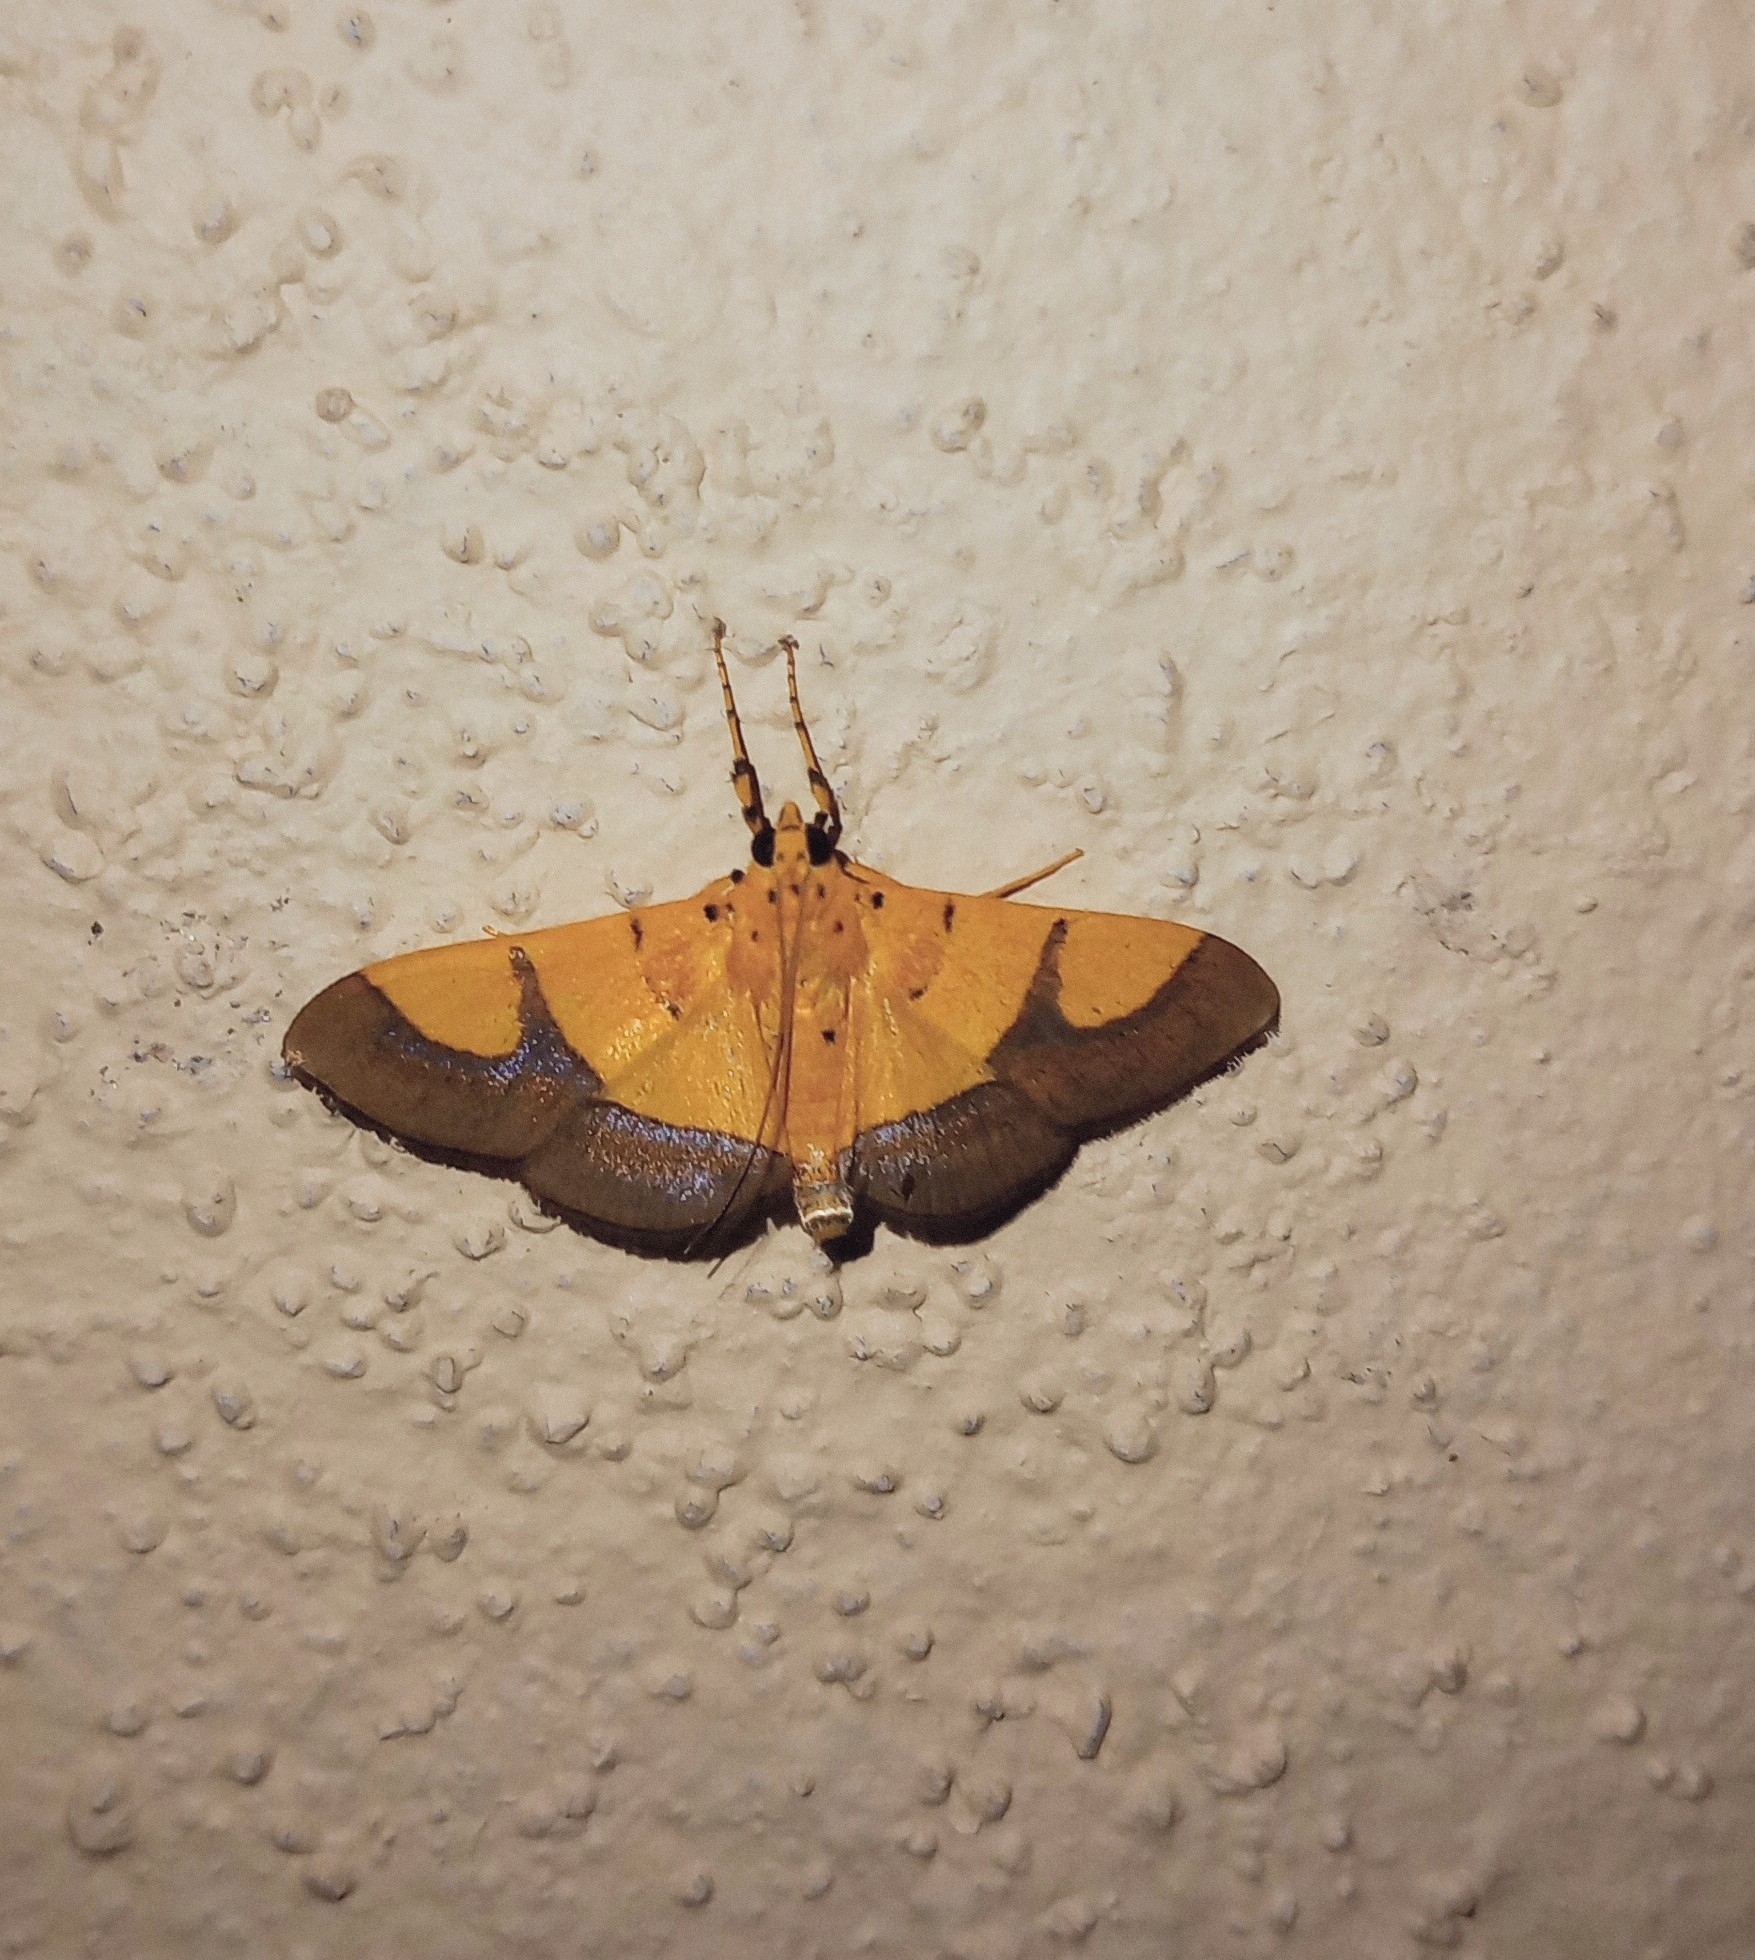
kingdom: Animalia
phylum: Arthropoda
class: Insecta
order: Lepidoptera
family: Crambidae
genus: Botyodes
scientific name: Botyodes
